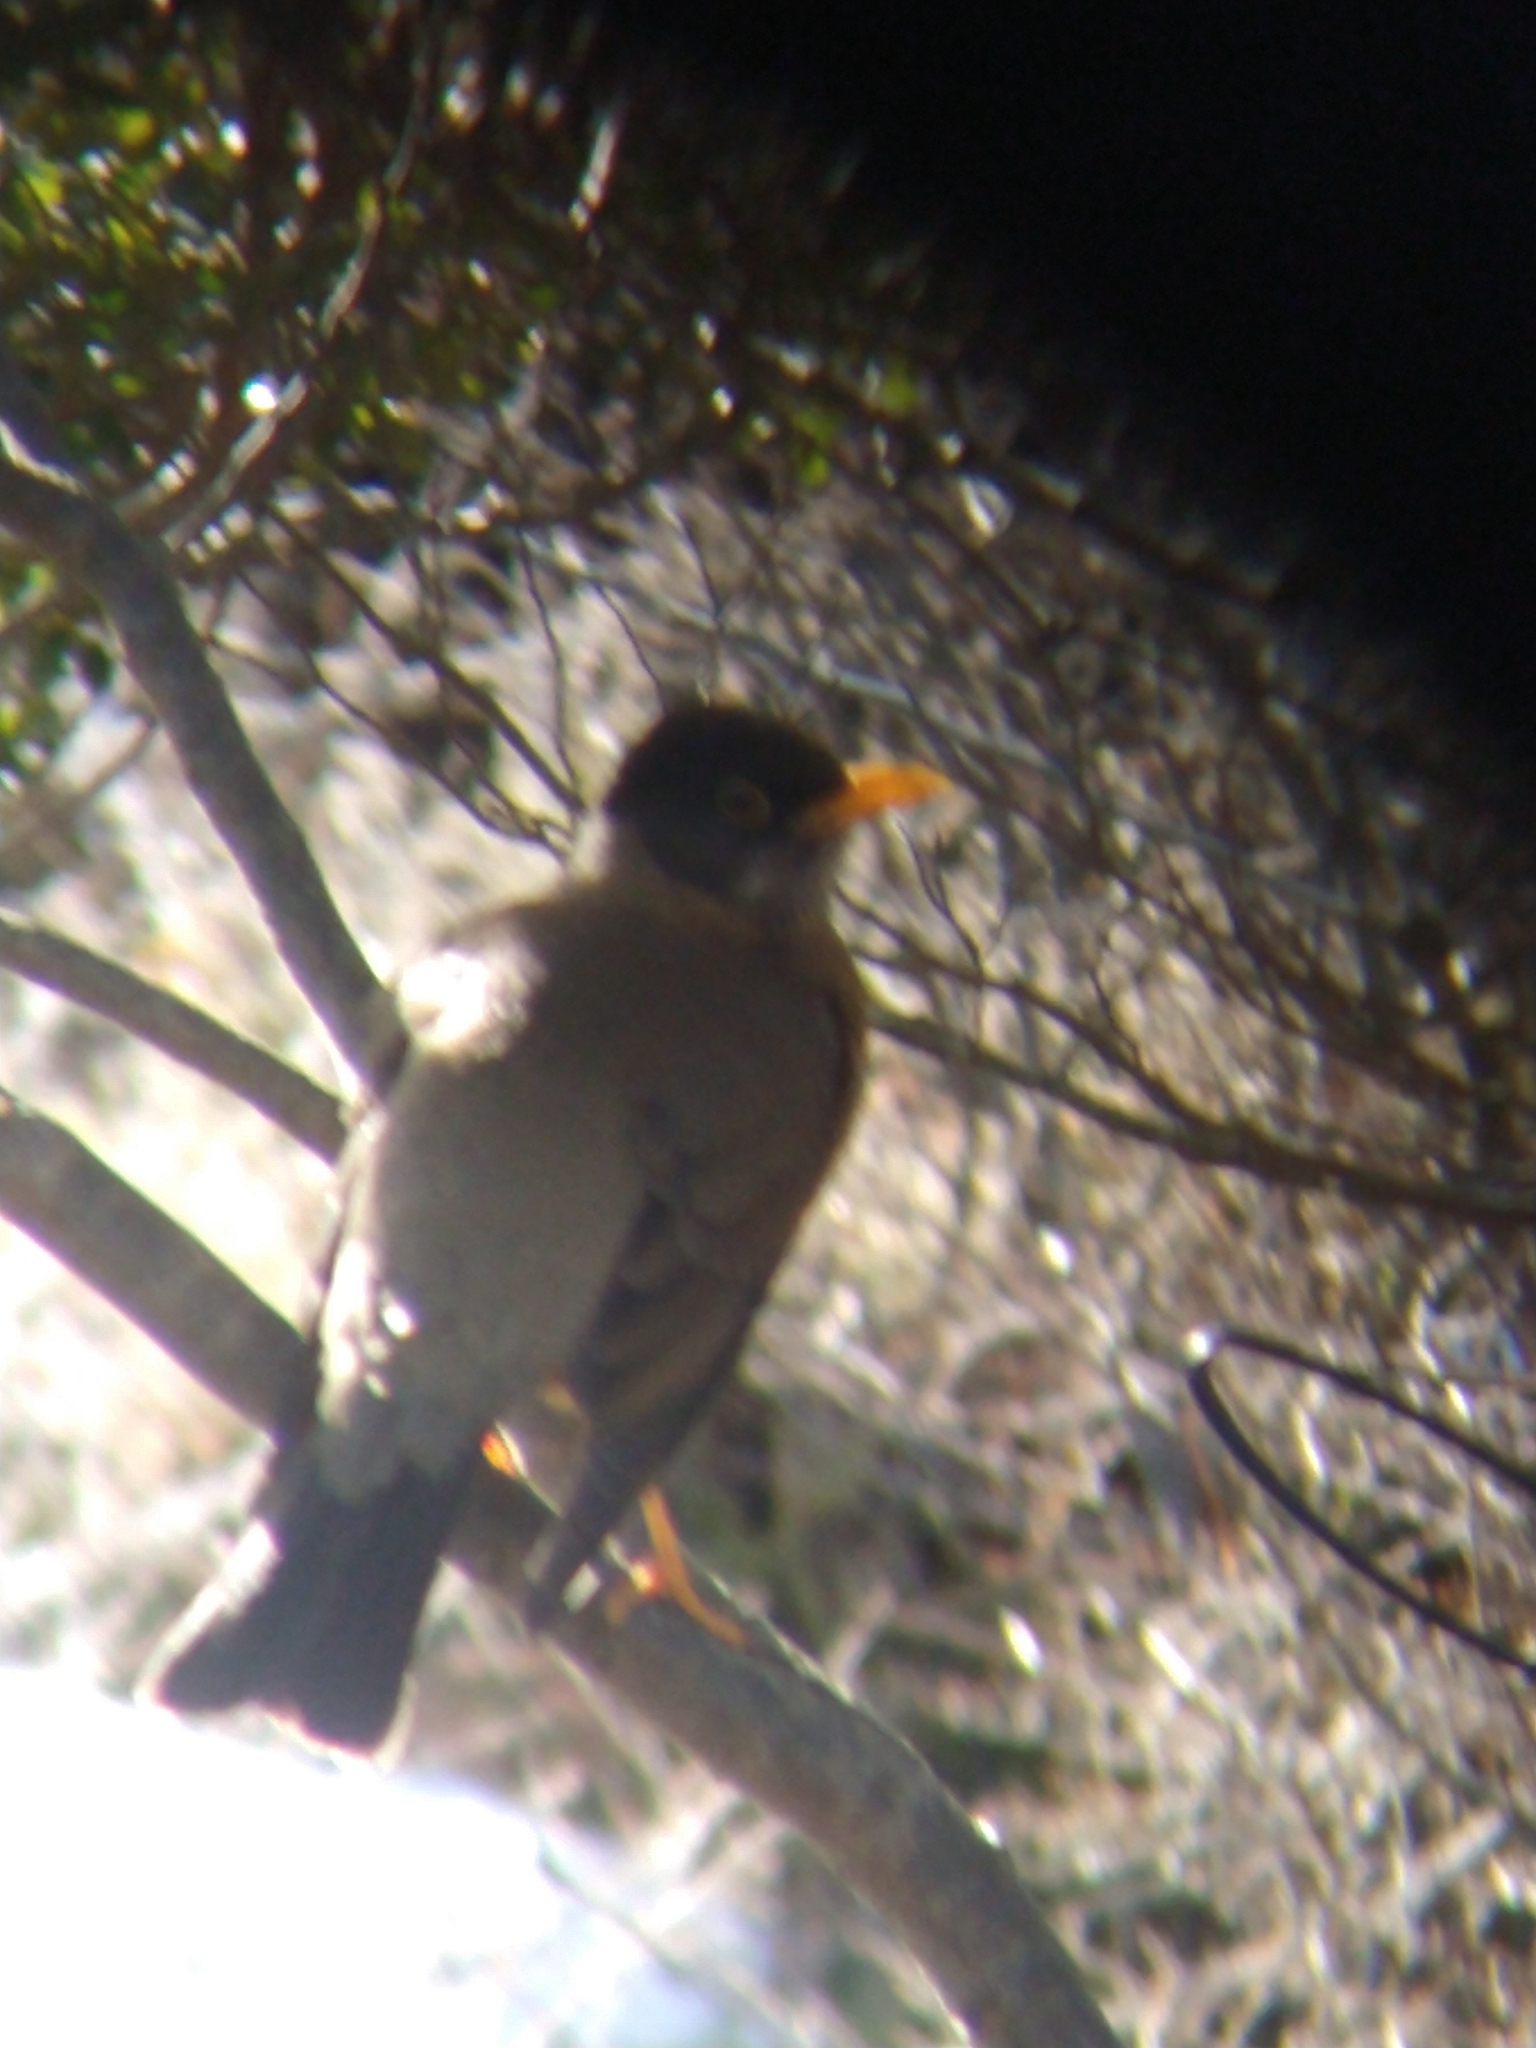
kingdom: Animalia
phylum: Chordata
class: Aves
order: Passeriformes
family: Turdidae
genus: Turdus
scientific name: Turdus falcklandii
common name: Austral thrush
